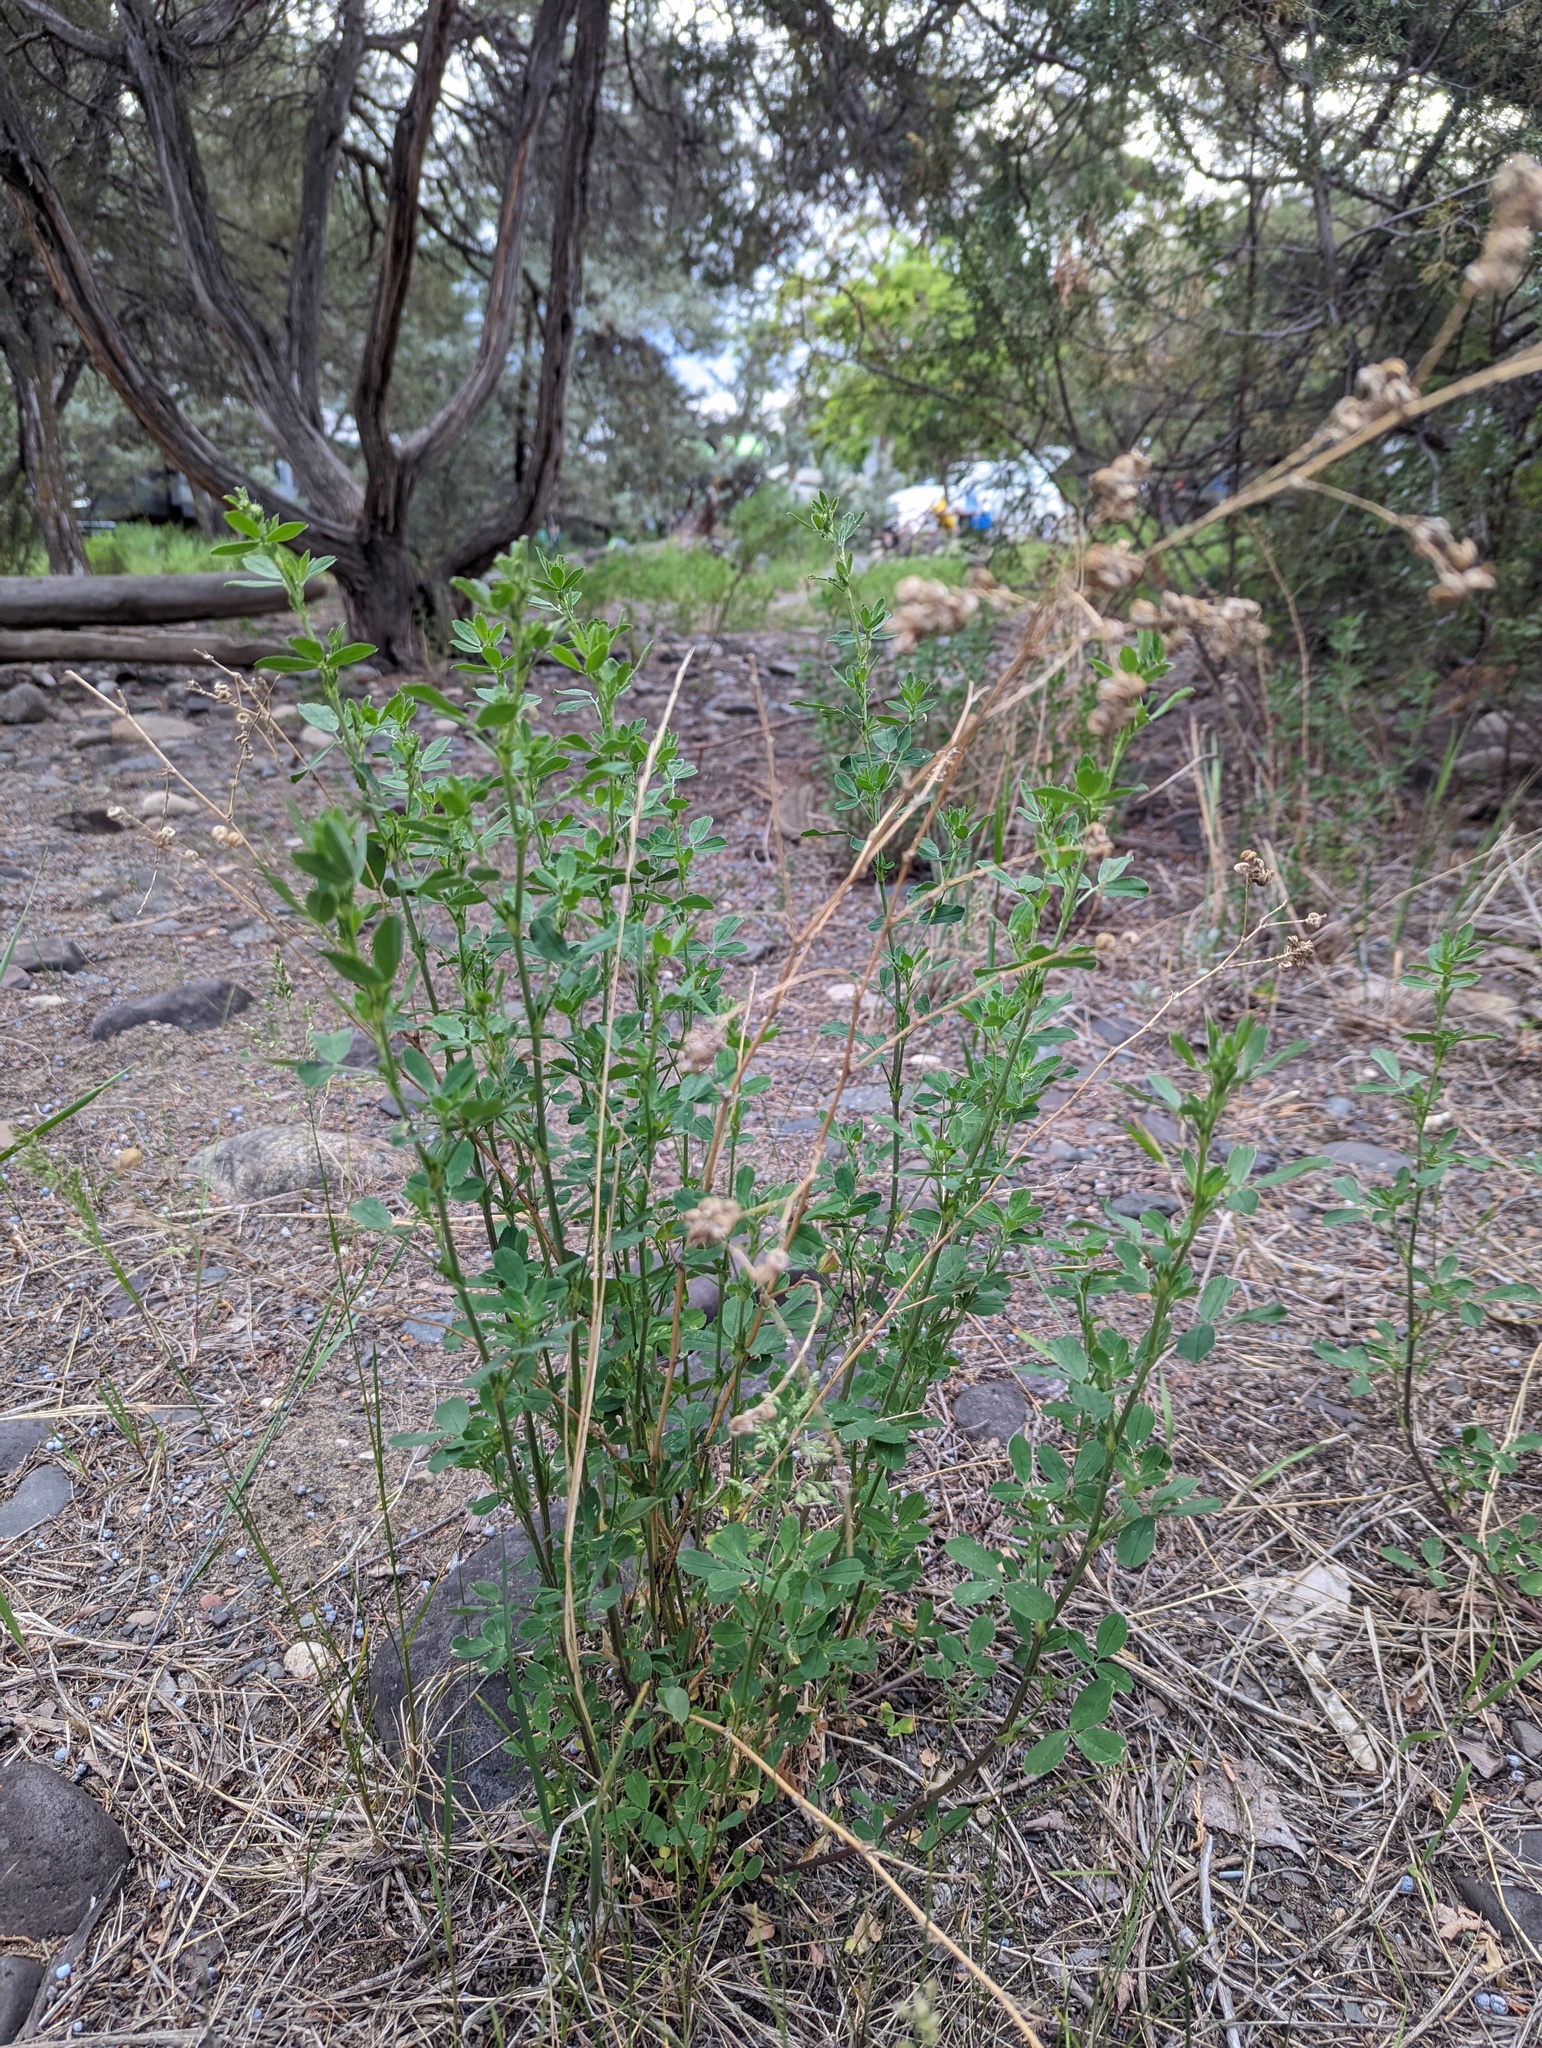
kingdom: Plantae
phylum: Tracheophyta
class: Magnoliopsida
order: Fabales
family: Fabaceae
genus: Medicago
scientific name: Medicago sativa
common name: Alfalfa
